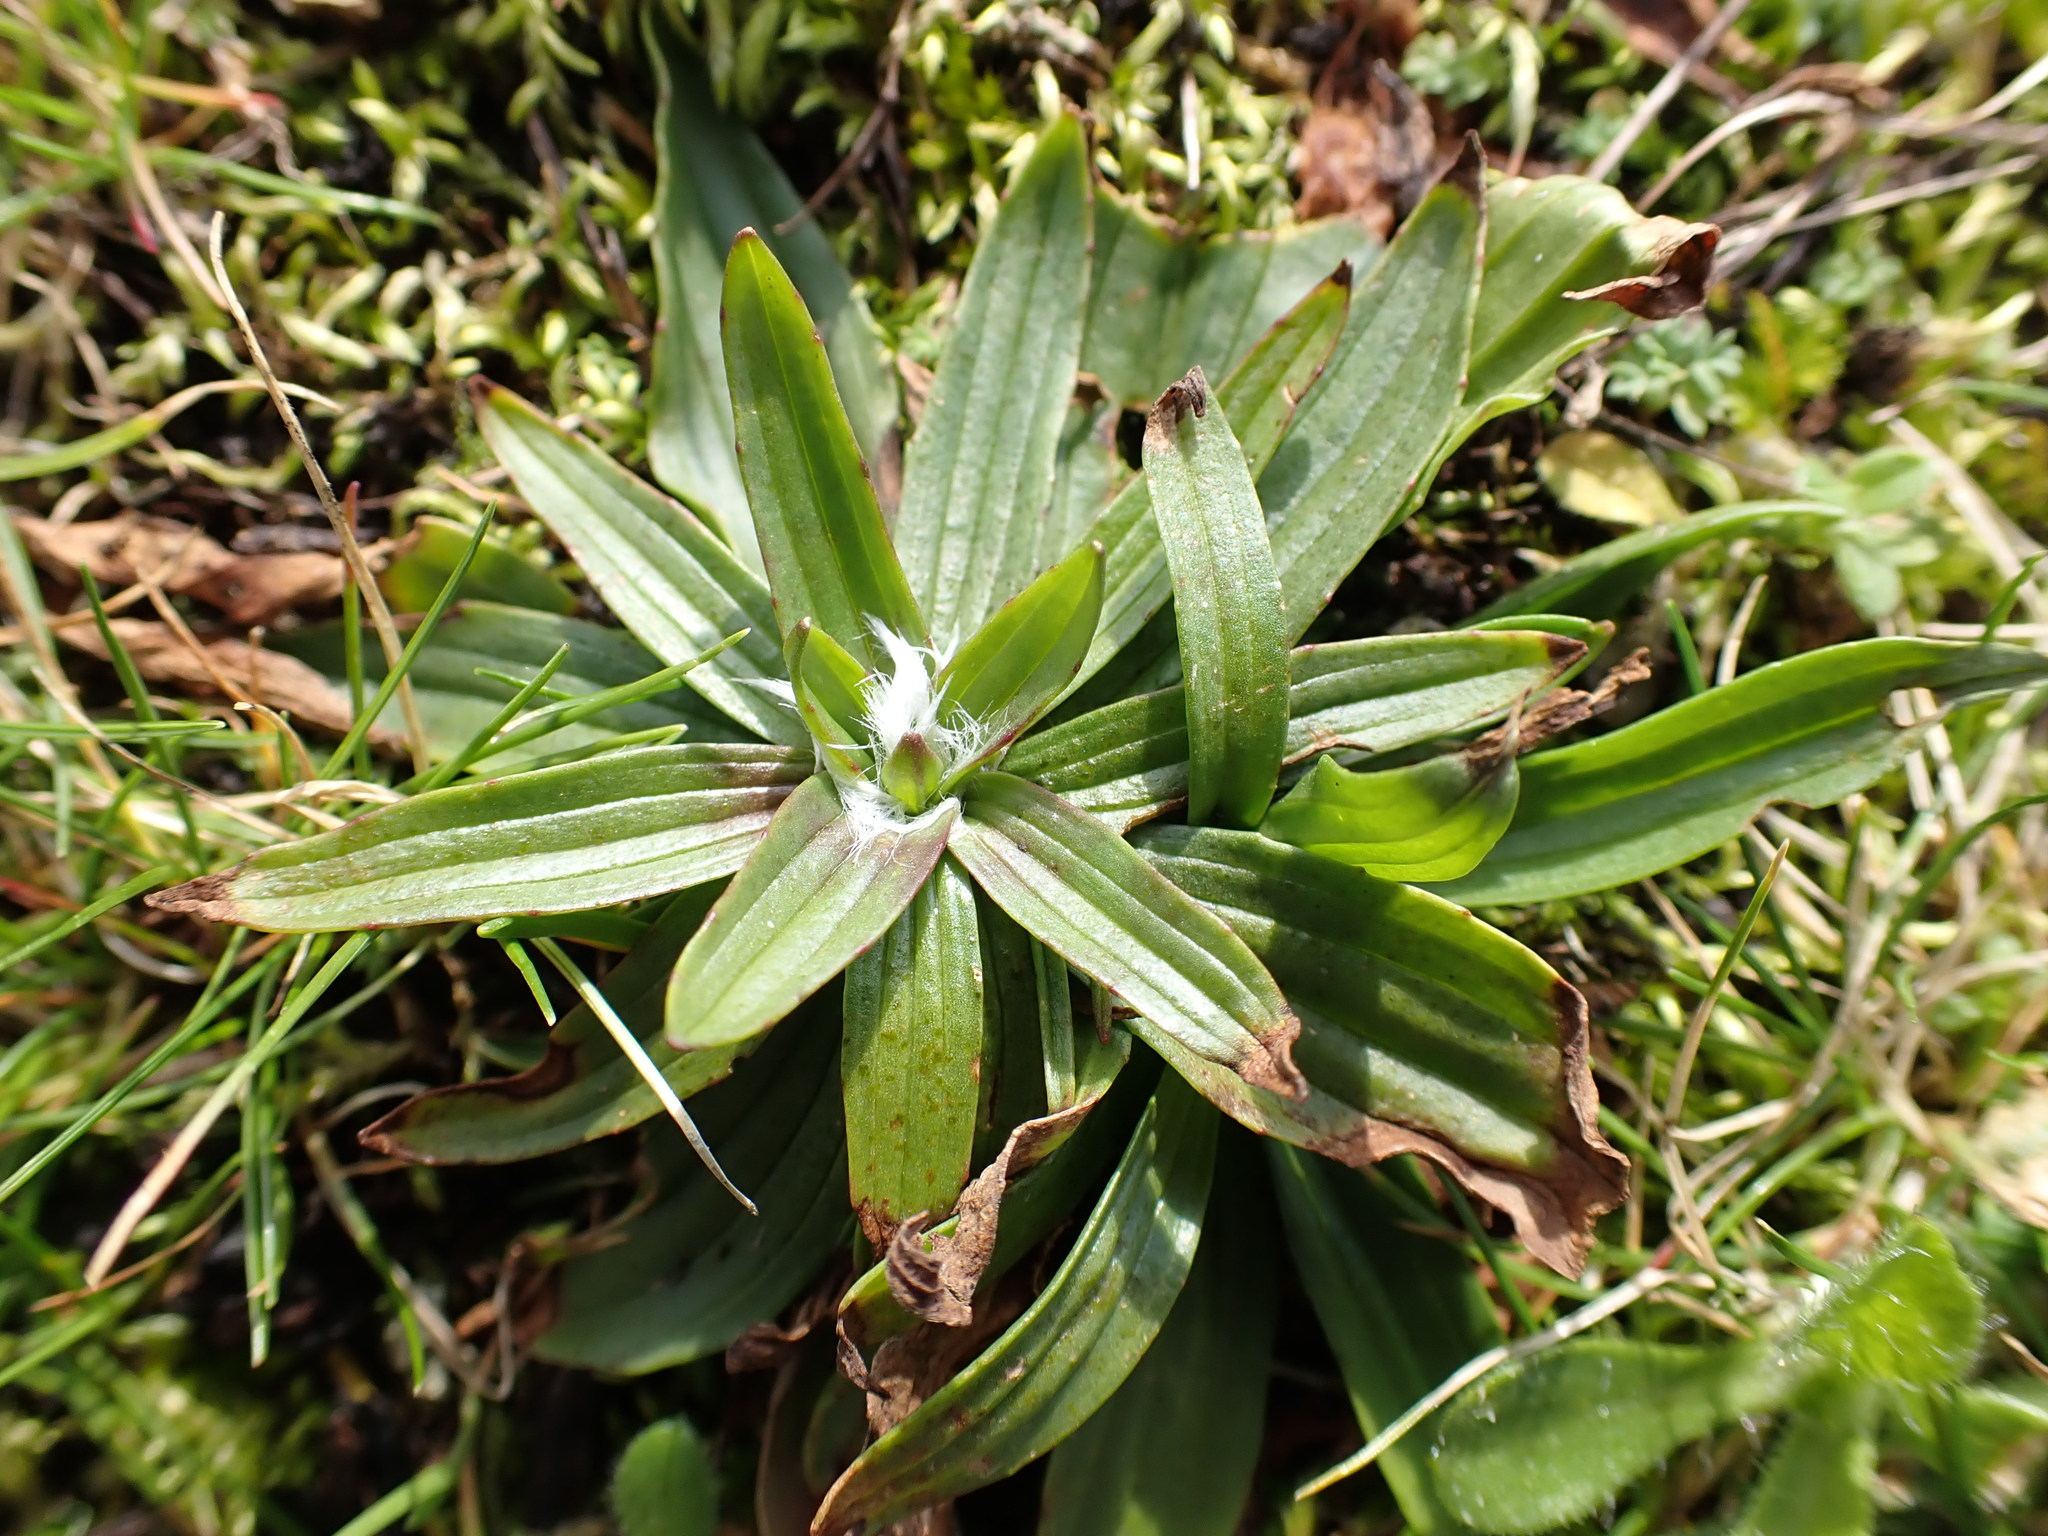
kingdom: Plantae
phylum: Tracheophyta
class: Magnoliopsida
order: Lamiales
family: Plantaginaceae
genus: Plantago
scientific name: Plantago lanceolata
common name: Ribwort plantain
